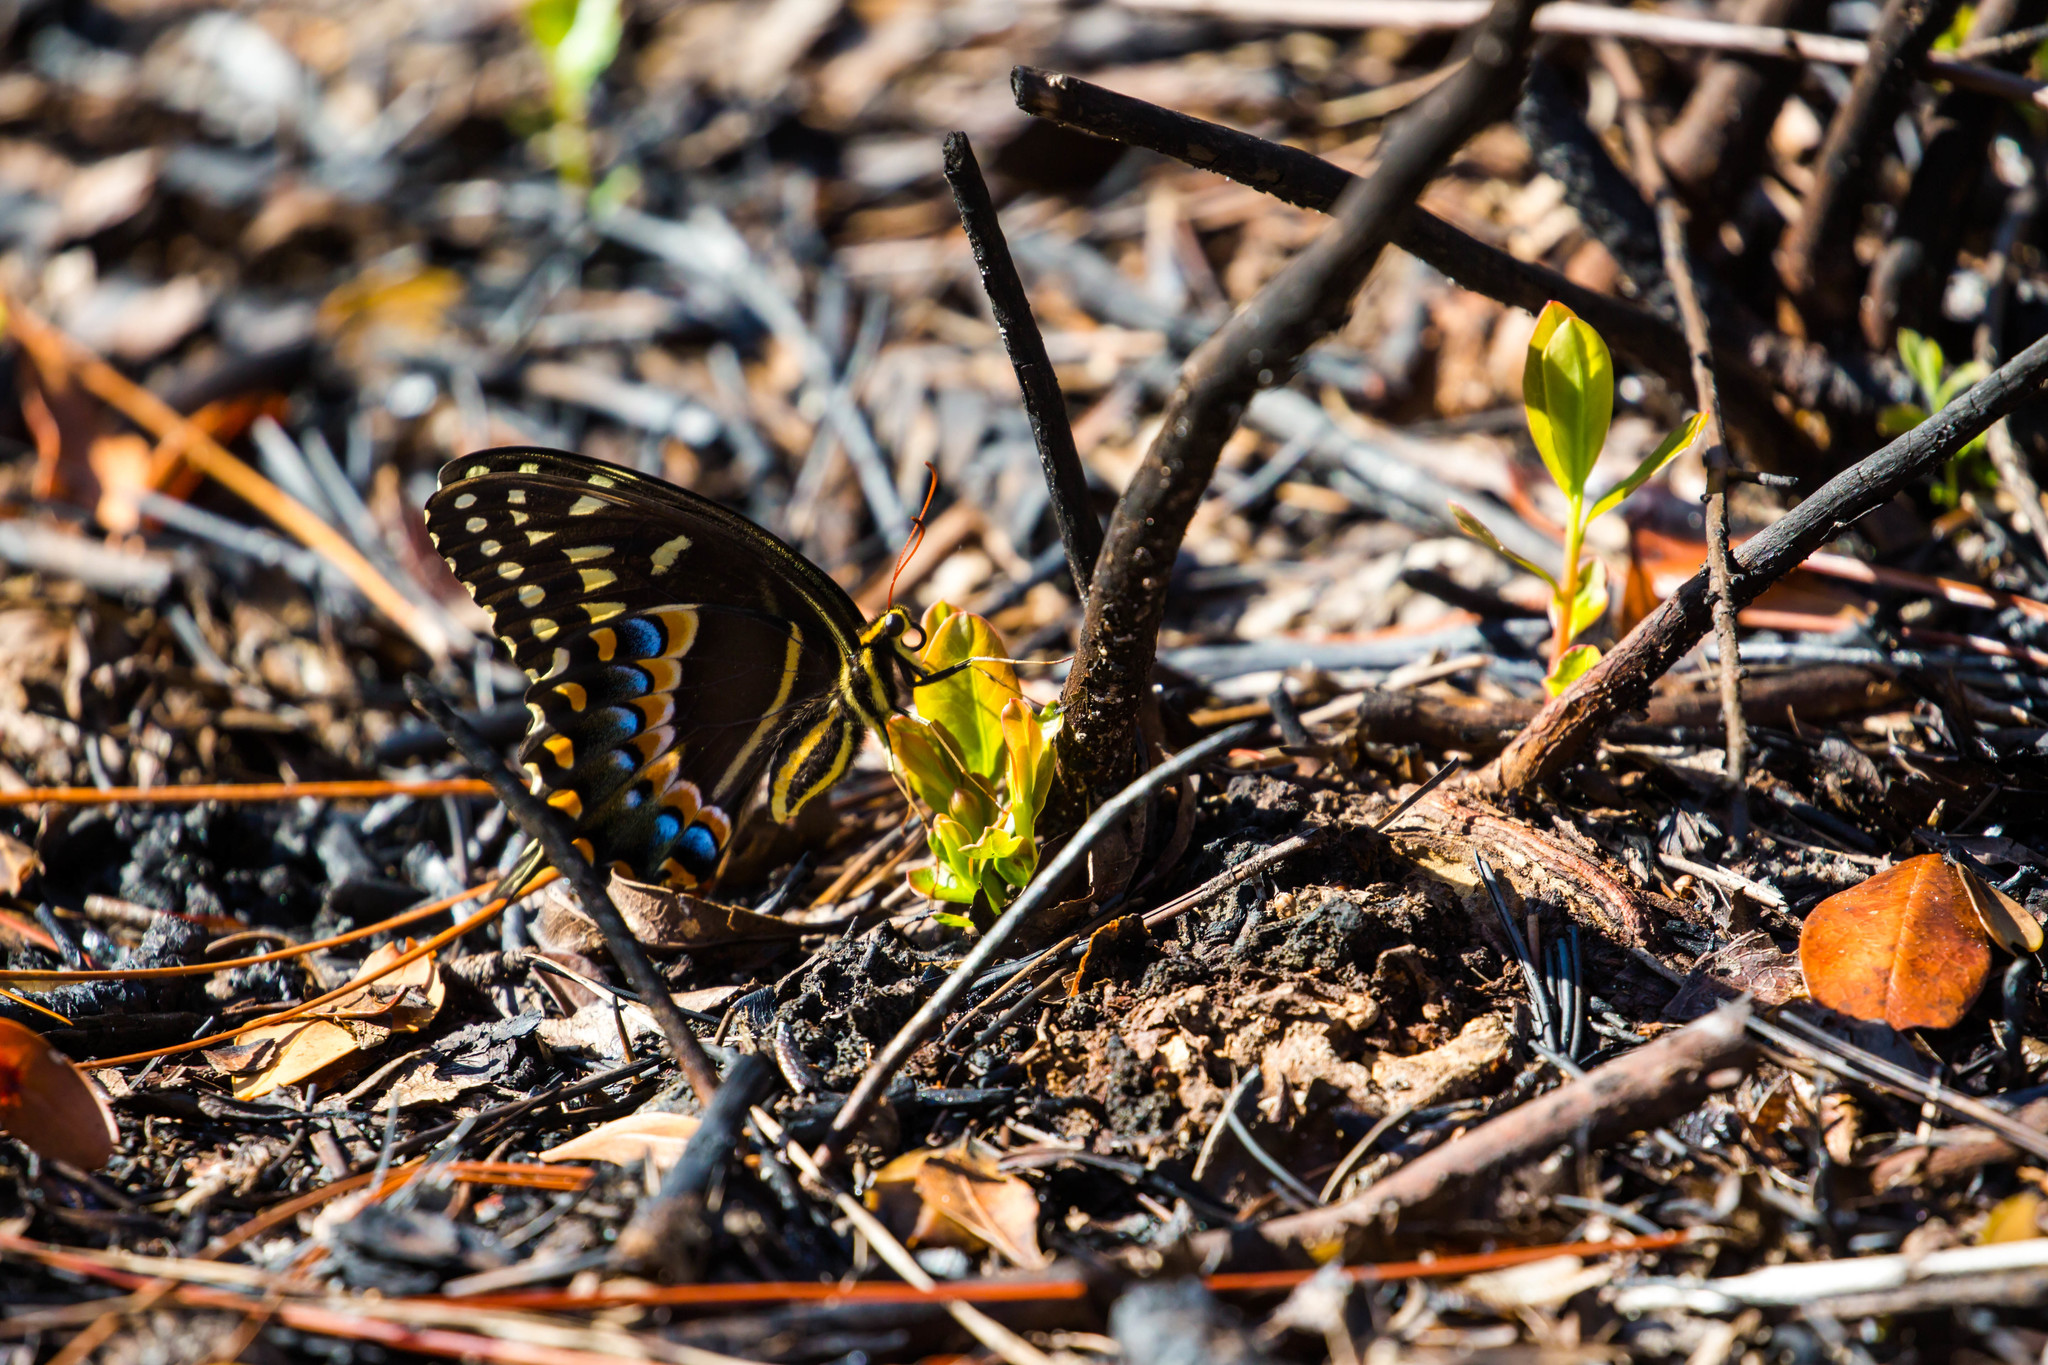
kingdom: Animalia
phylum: Arthropoda
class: Insecta
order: Lepidoptera
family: Papilionidae
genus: Papilio
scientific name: Papilio palamedes
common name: Palamedes swallowtail
